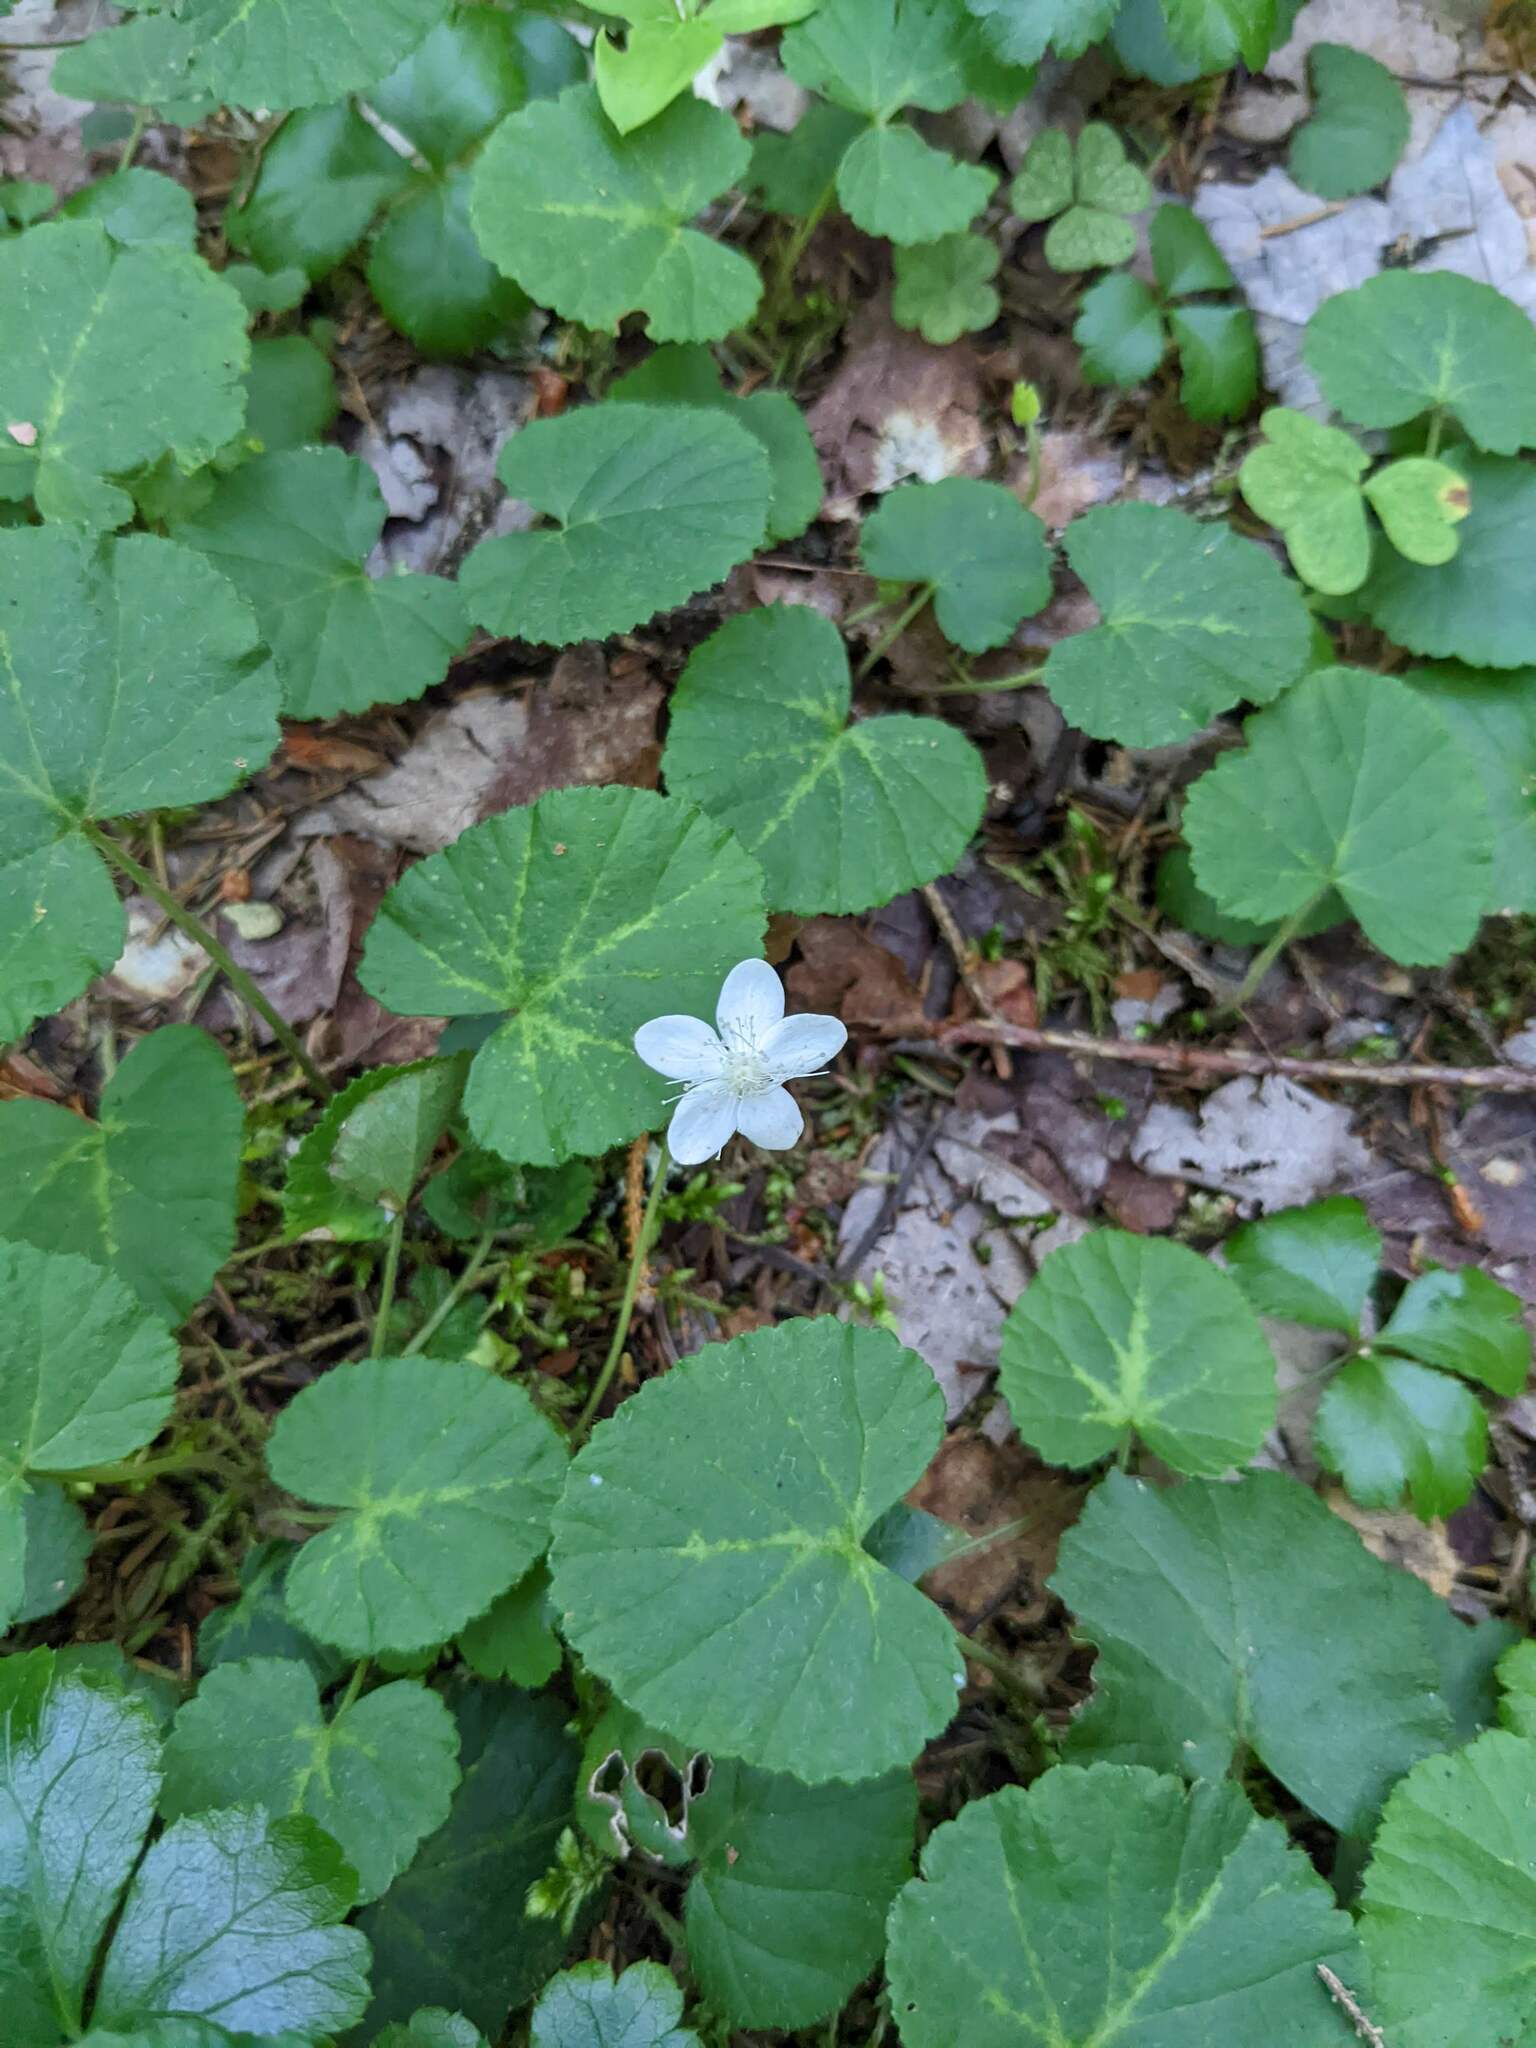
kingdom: Plantae
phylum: Tracheophyta
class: Magnoliopsida
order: Rosales
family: Rosaceae
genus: Dalibarda
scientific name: Dalibarda repens
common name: Dewdrop
